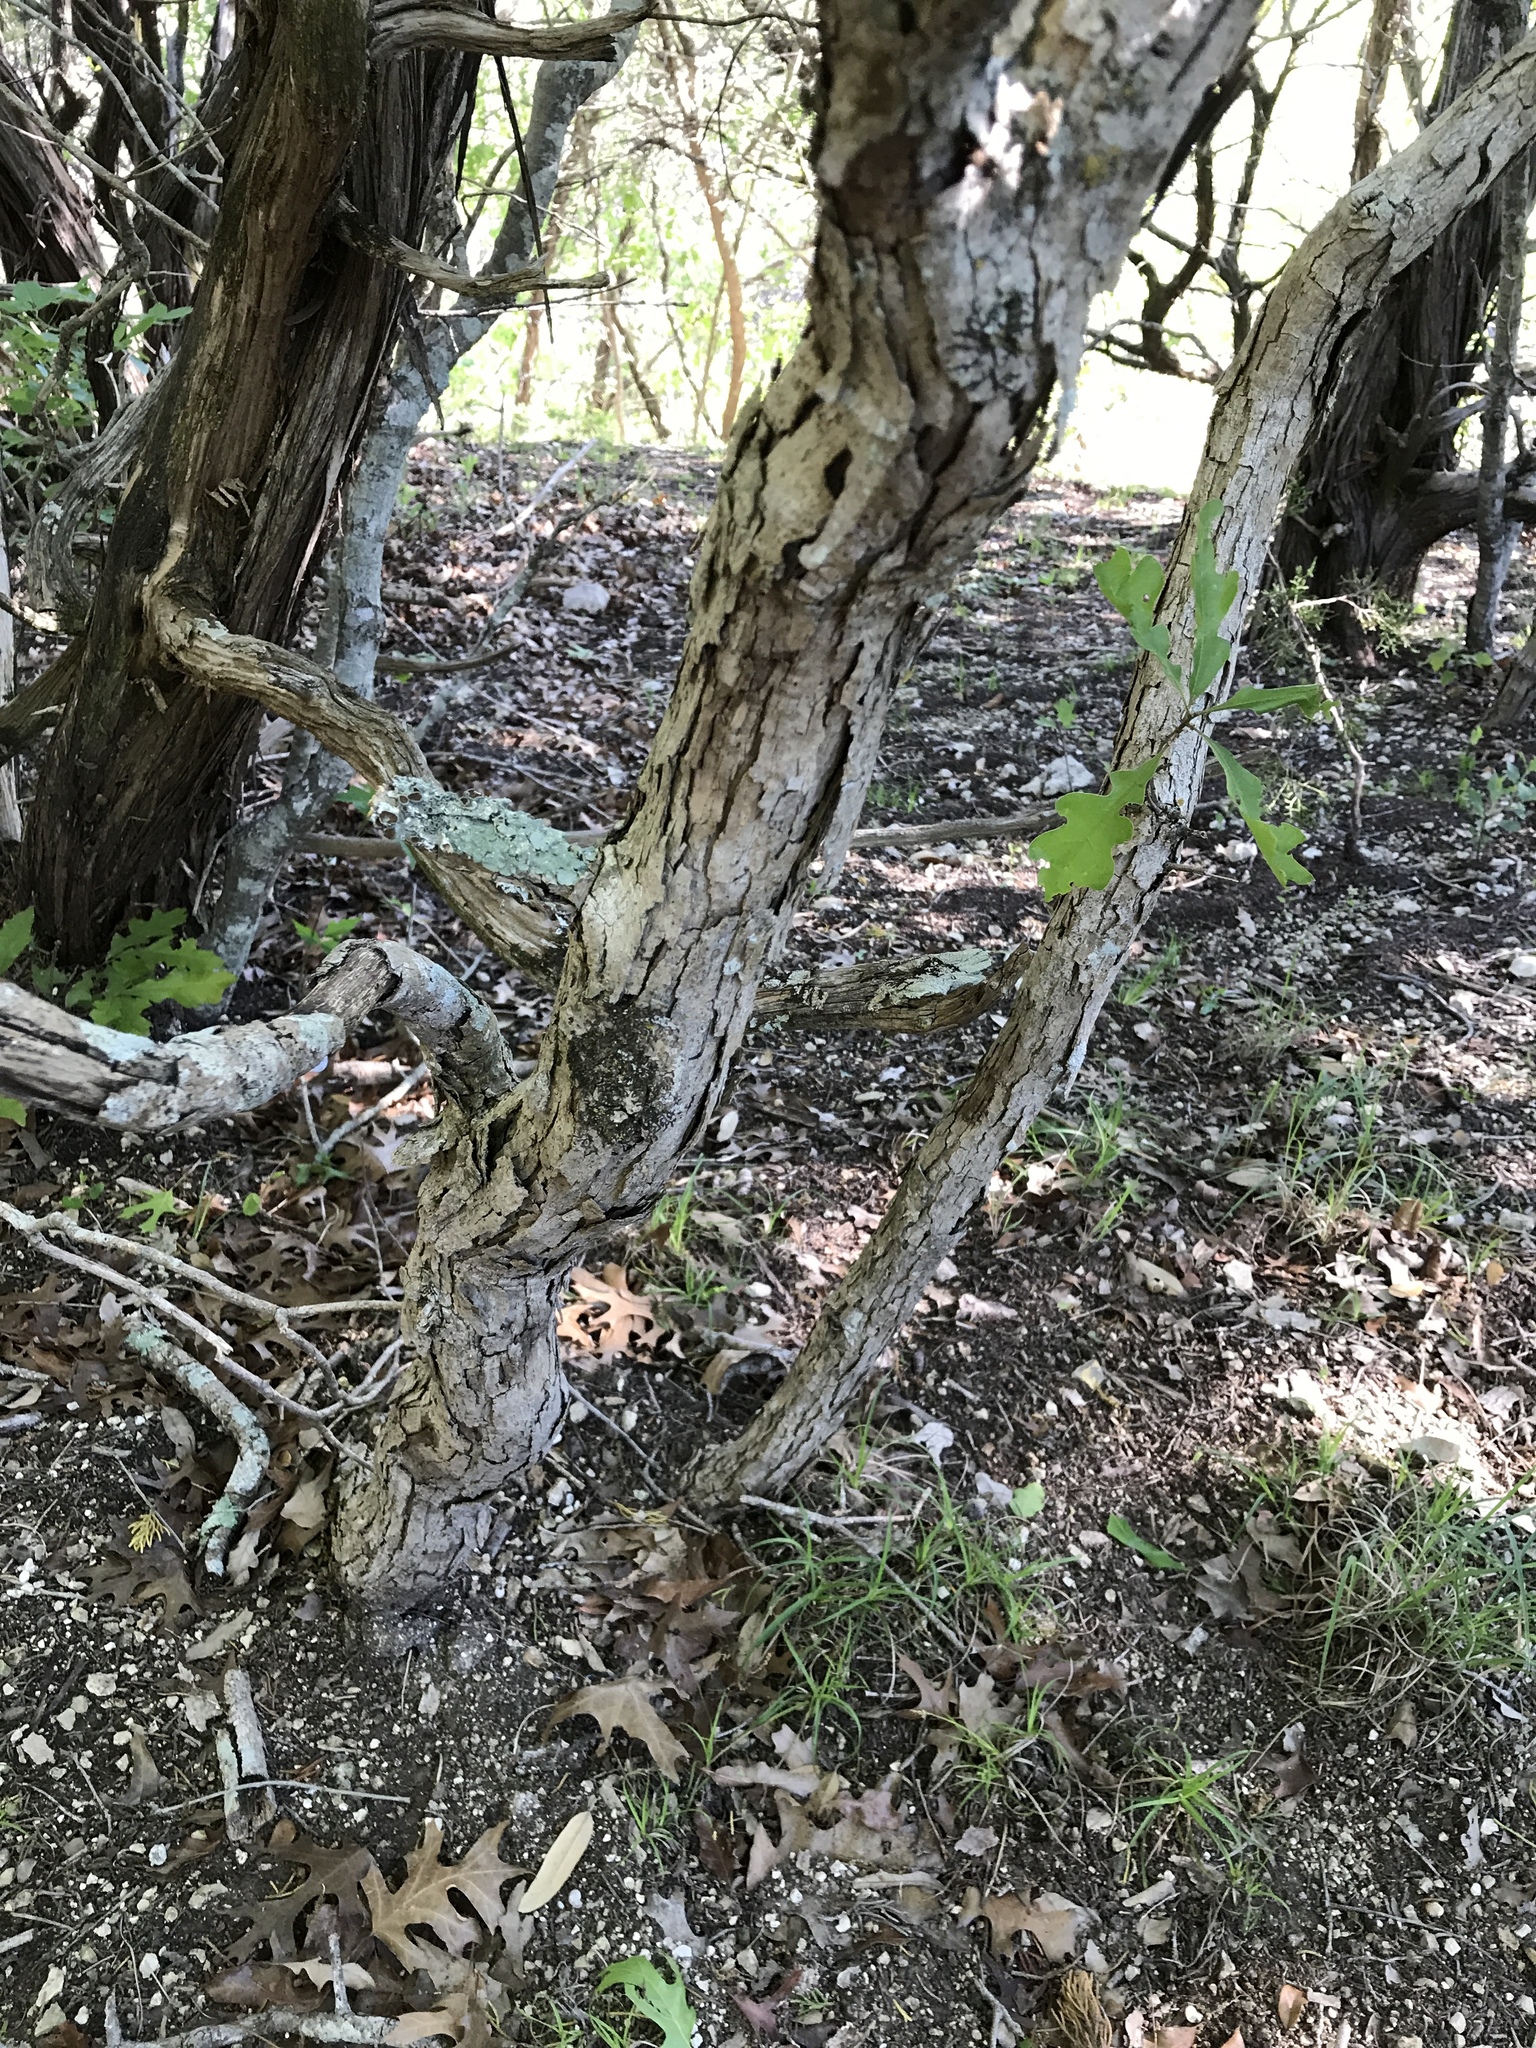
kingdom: Plantae
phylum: Tracheophyta
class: Magnoliopsida
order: Fagales
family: Fagaceae
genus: Quercus
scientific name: Quercus sinuata
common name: Durand oak
